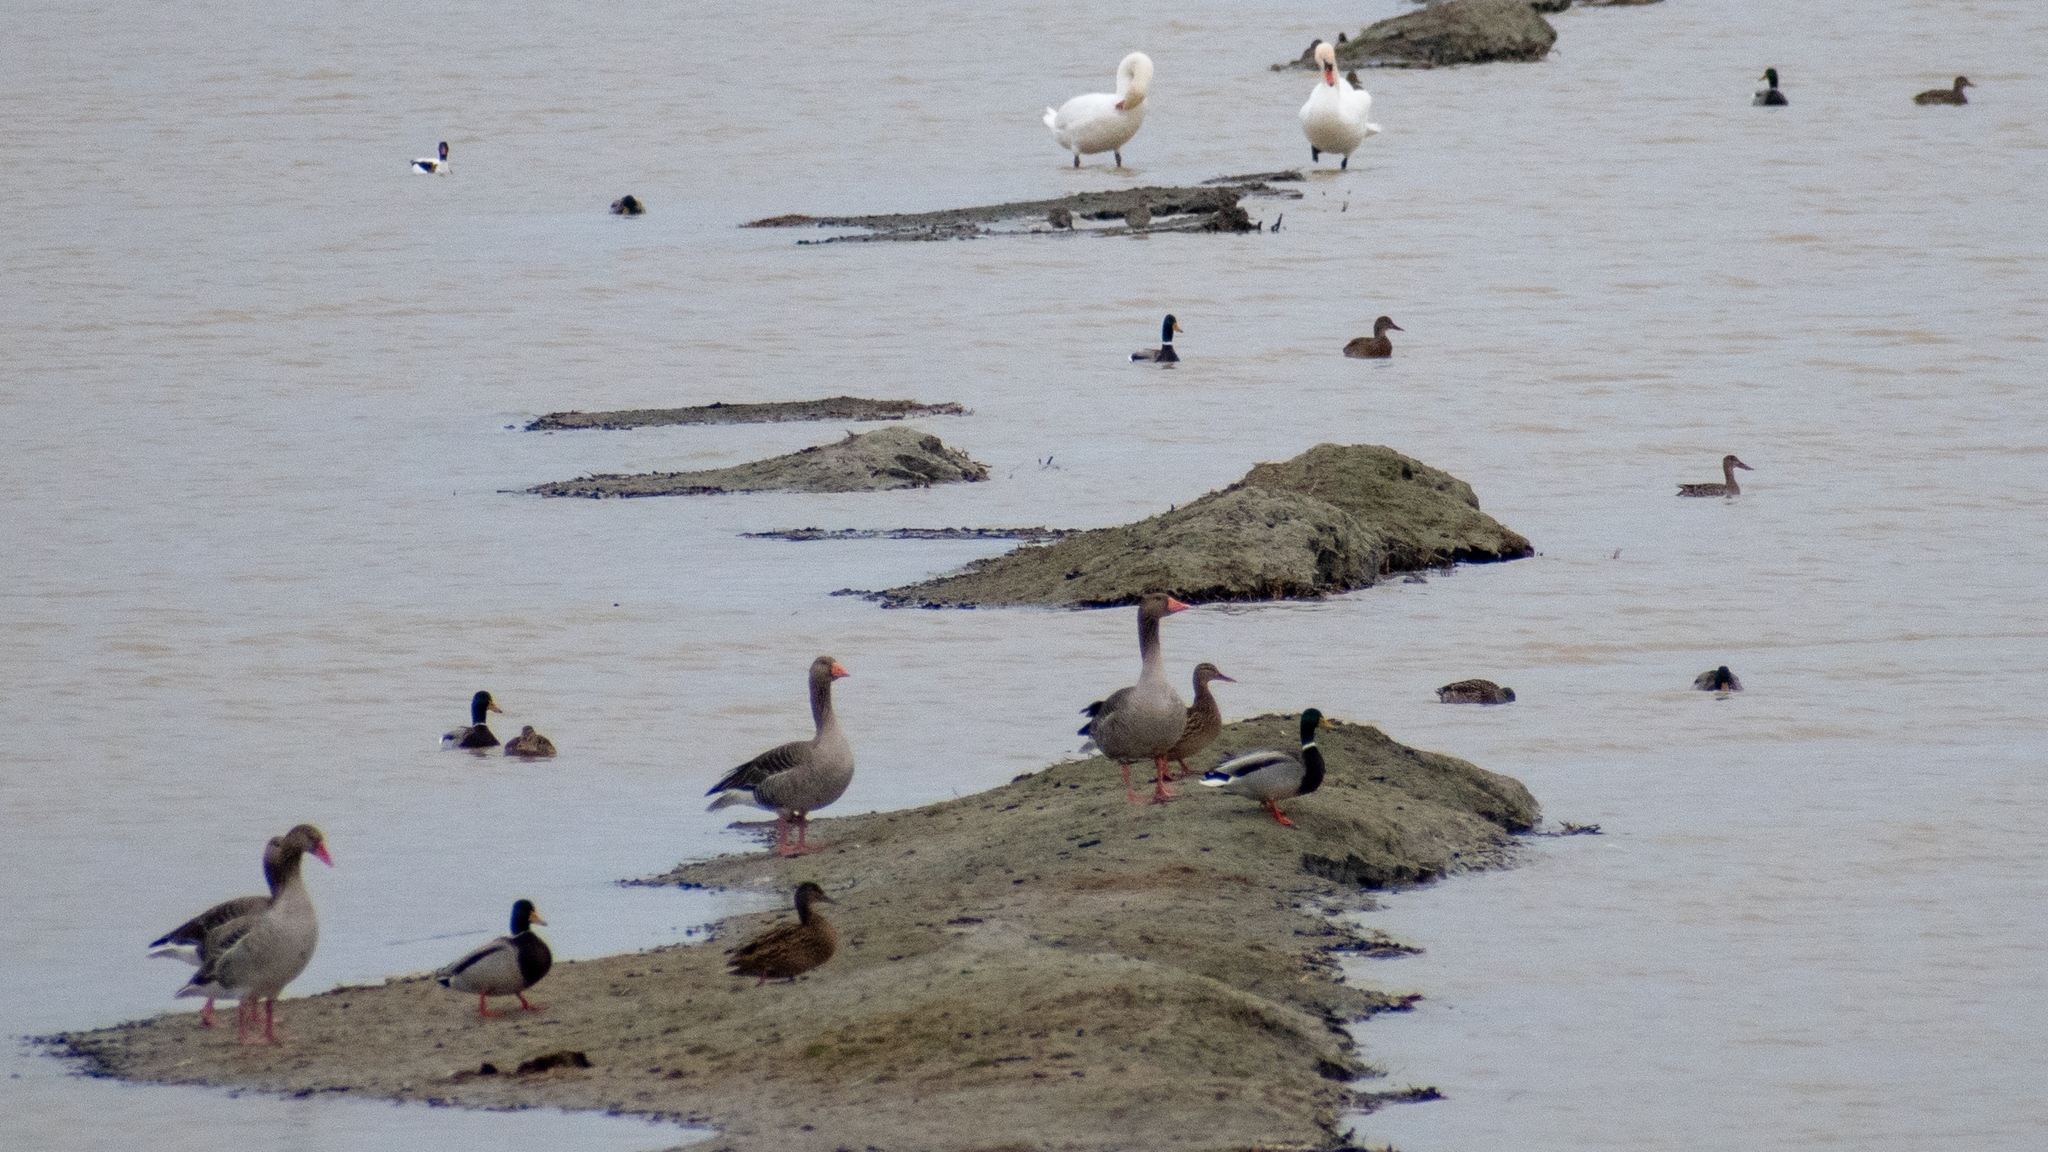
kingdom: Animalia
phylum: Chordata
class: Aves
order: Anseriformes
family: Anatidae
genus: Anas
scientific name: Anas platyrhynchos
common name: Mallard
